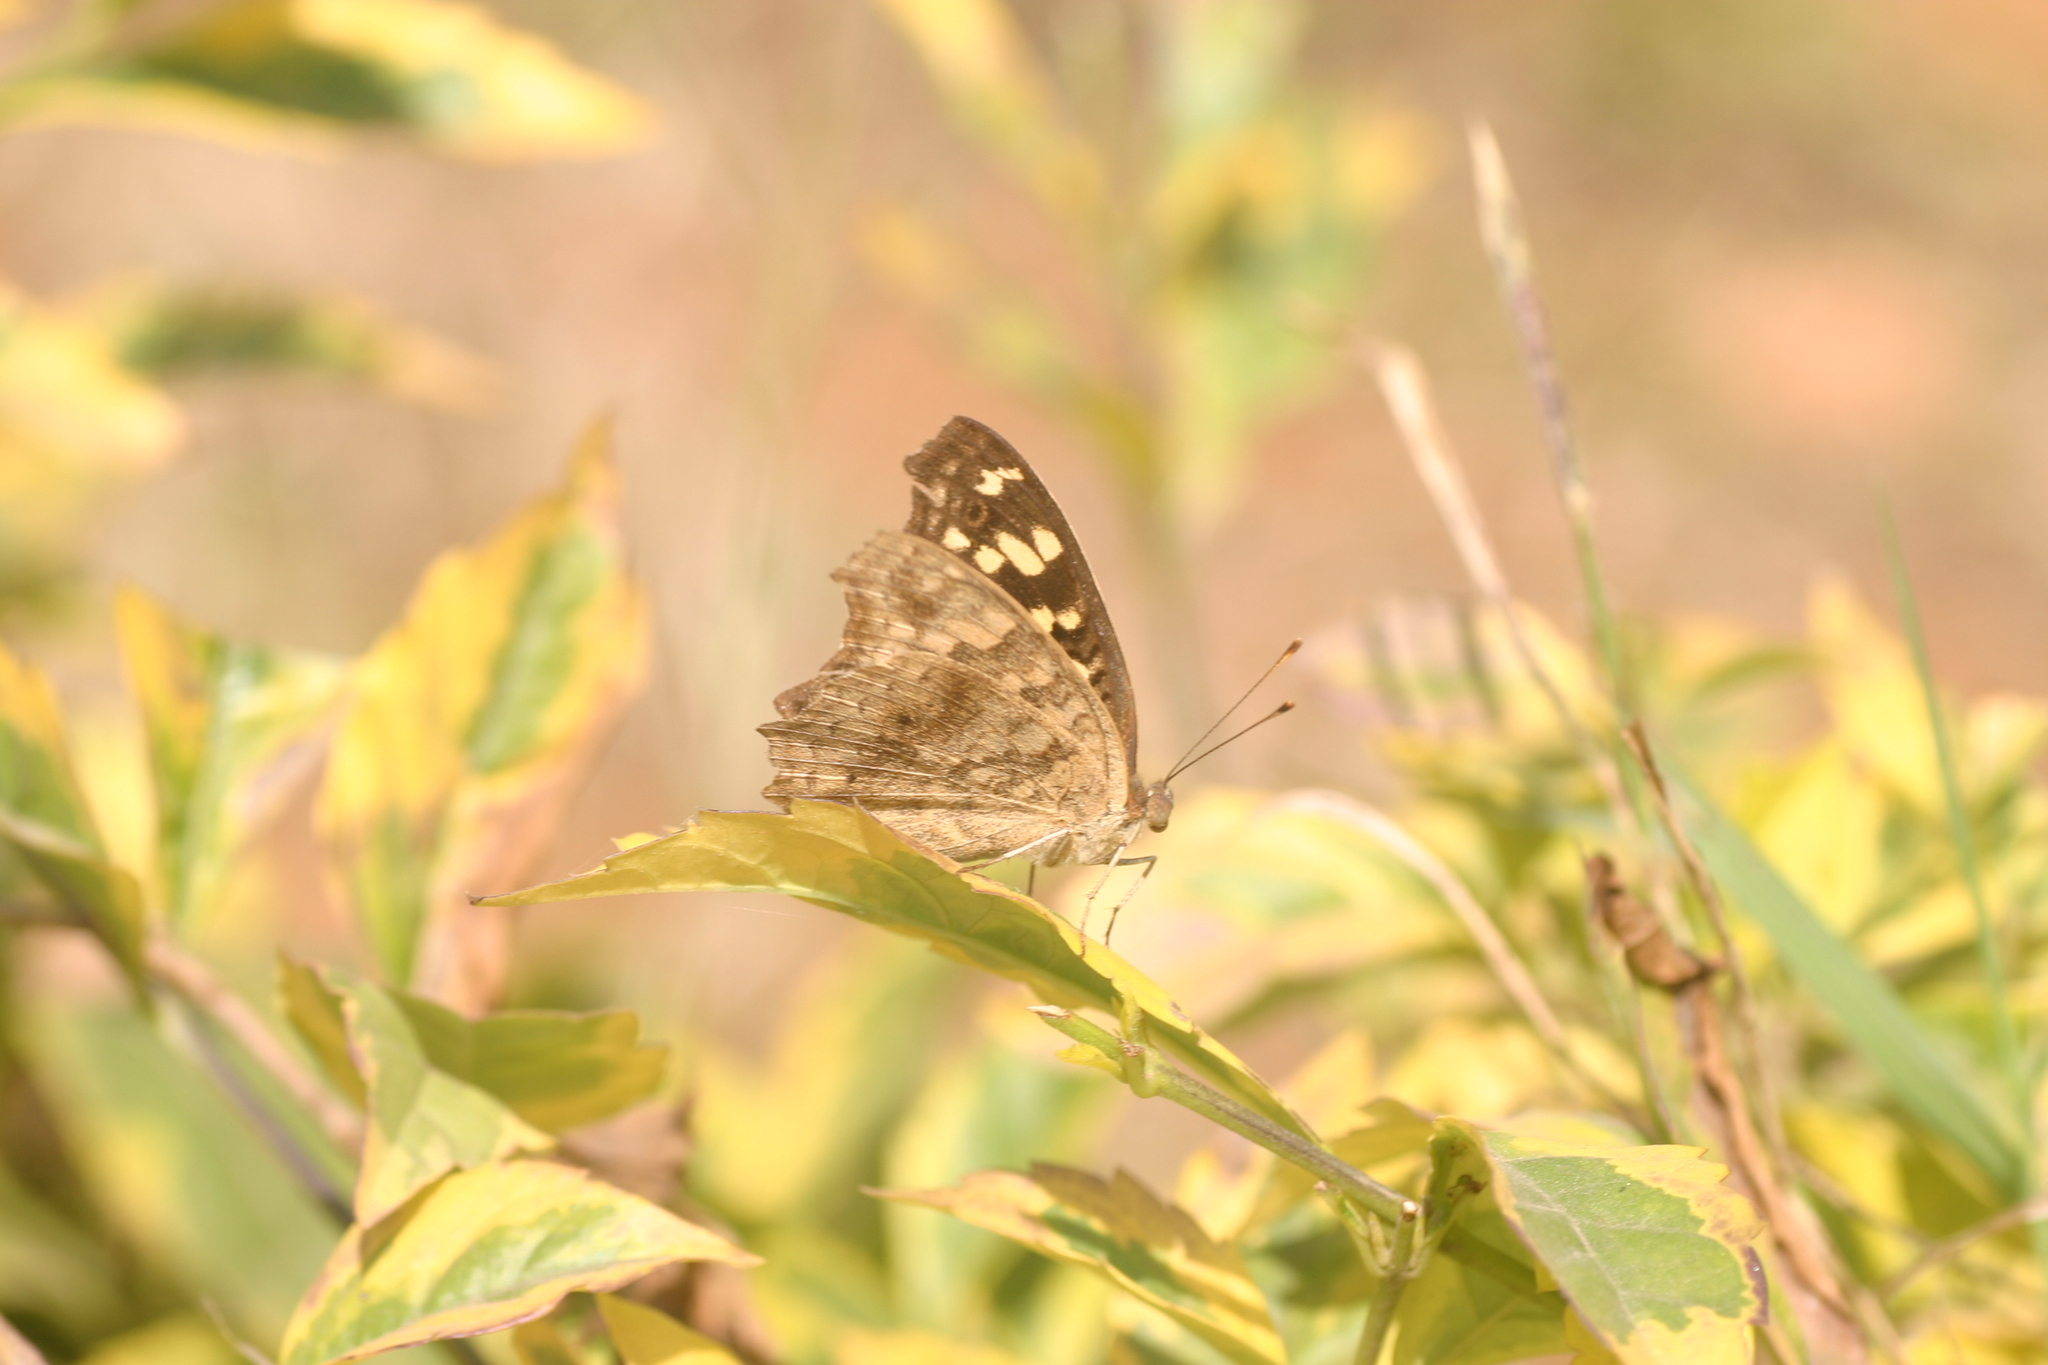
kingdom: Animalia
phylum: Arthropoda
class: Insecta
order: Lepidoptera
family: Nymphalidae
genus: Junonia
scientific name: Junonia lemonias
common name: Lemon pansy
